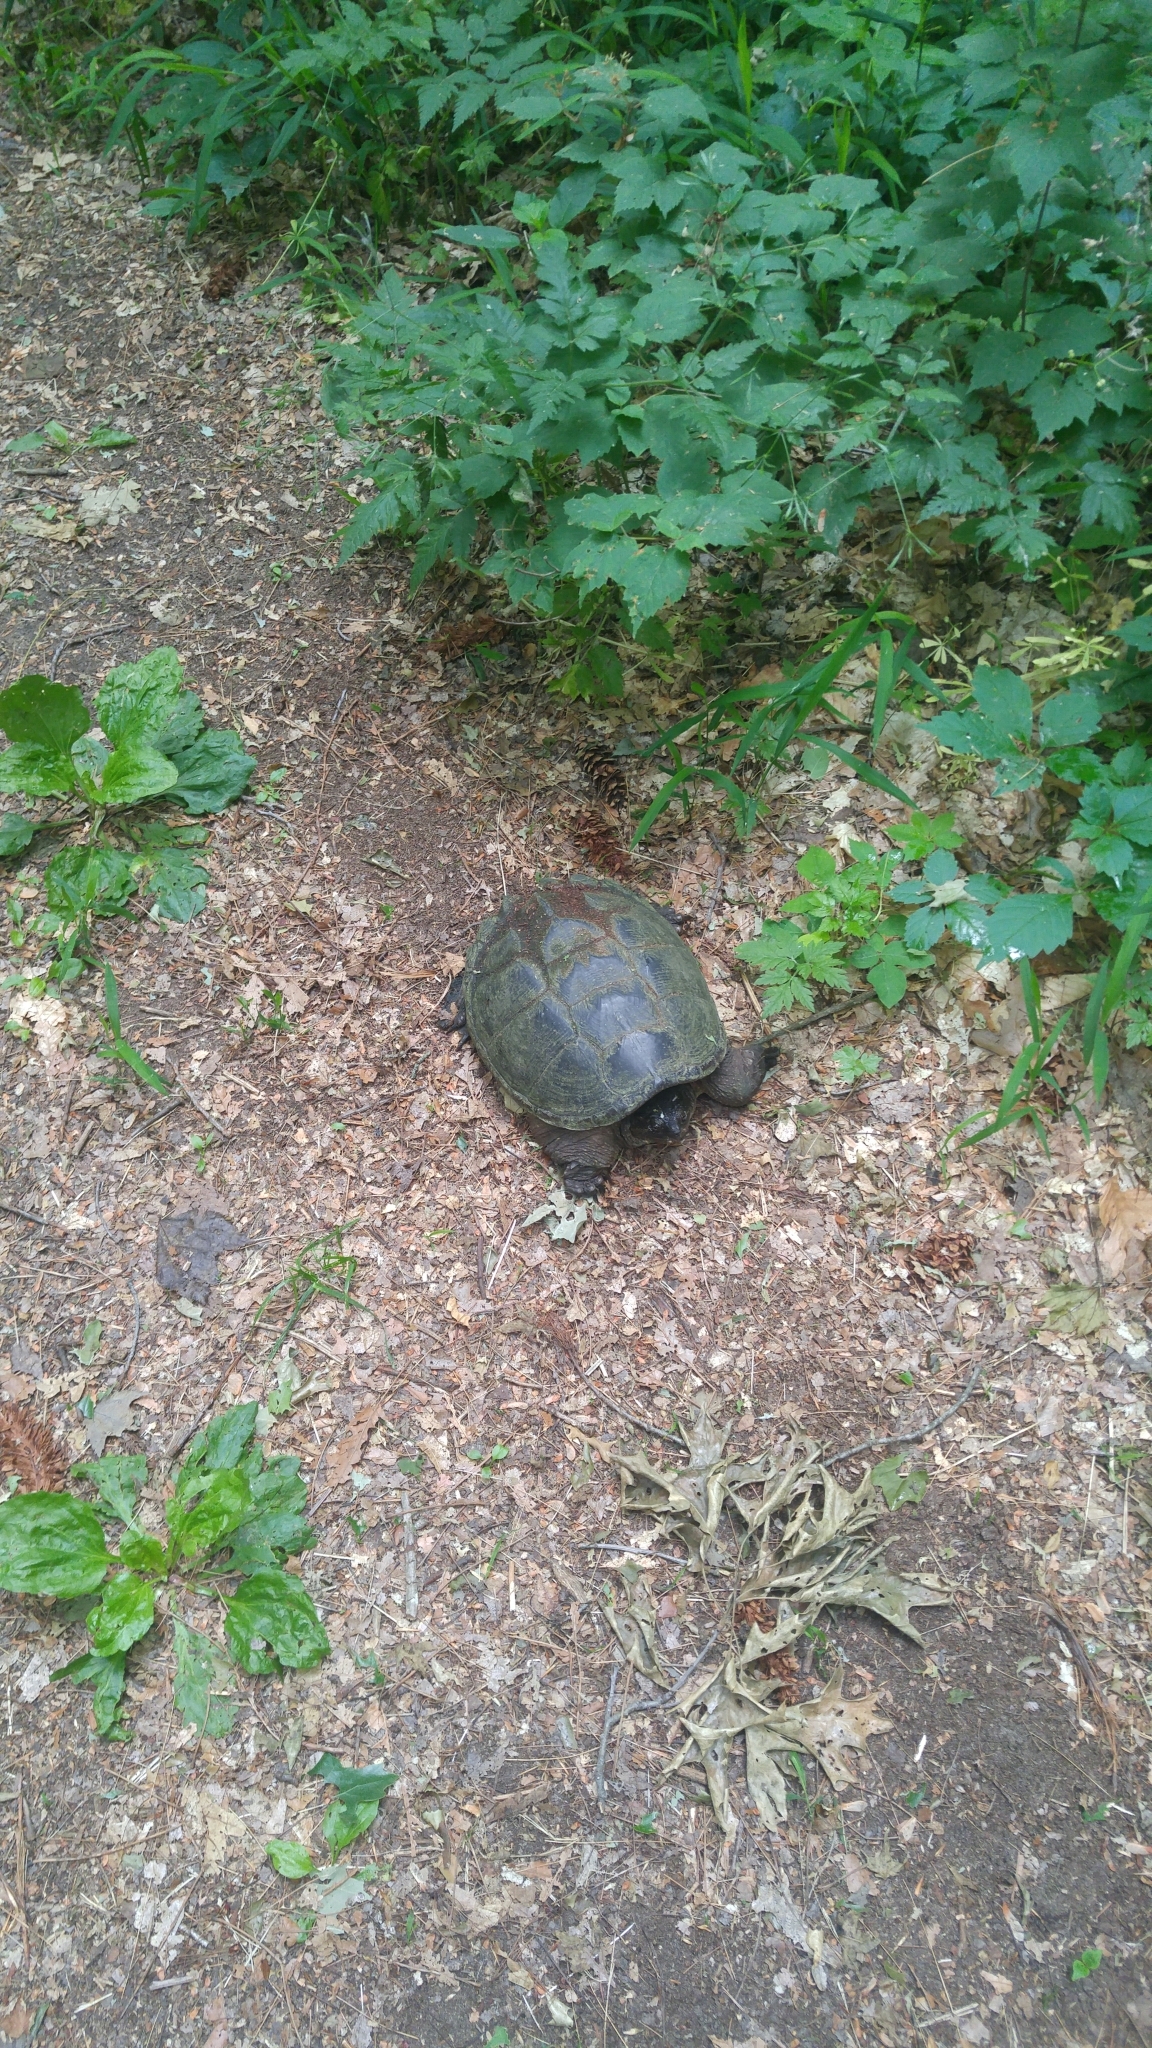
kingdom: Animalia
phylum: Chordata
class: Testudines
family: Chelydridae
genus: Chelydra
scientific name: Chelydra serpentina
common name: Common snapping turtle
